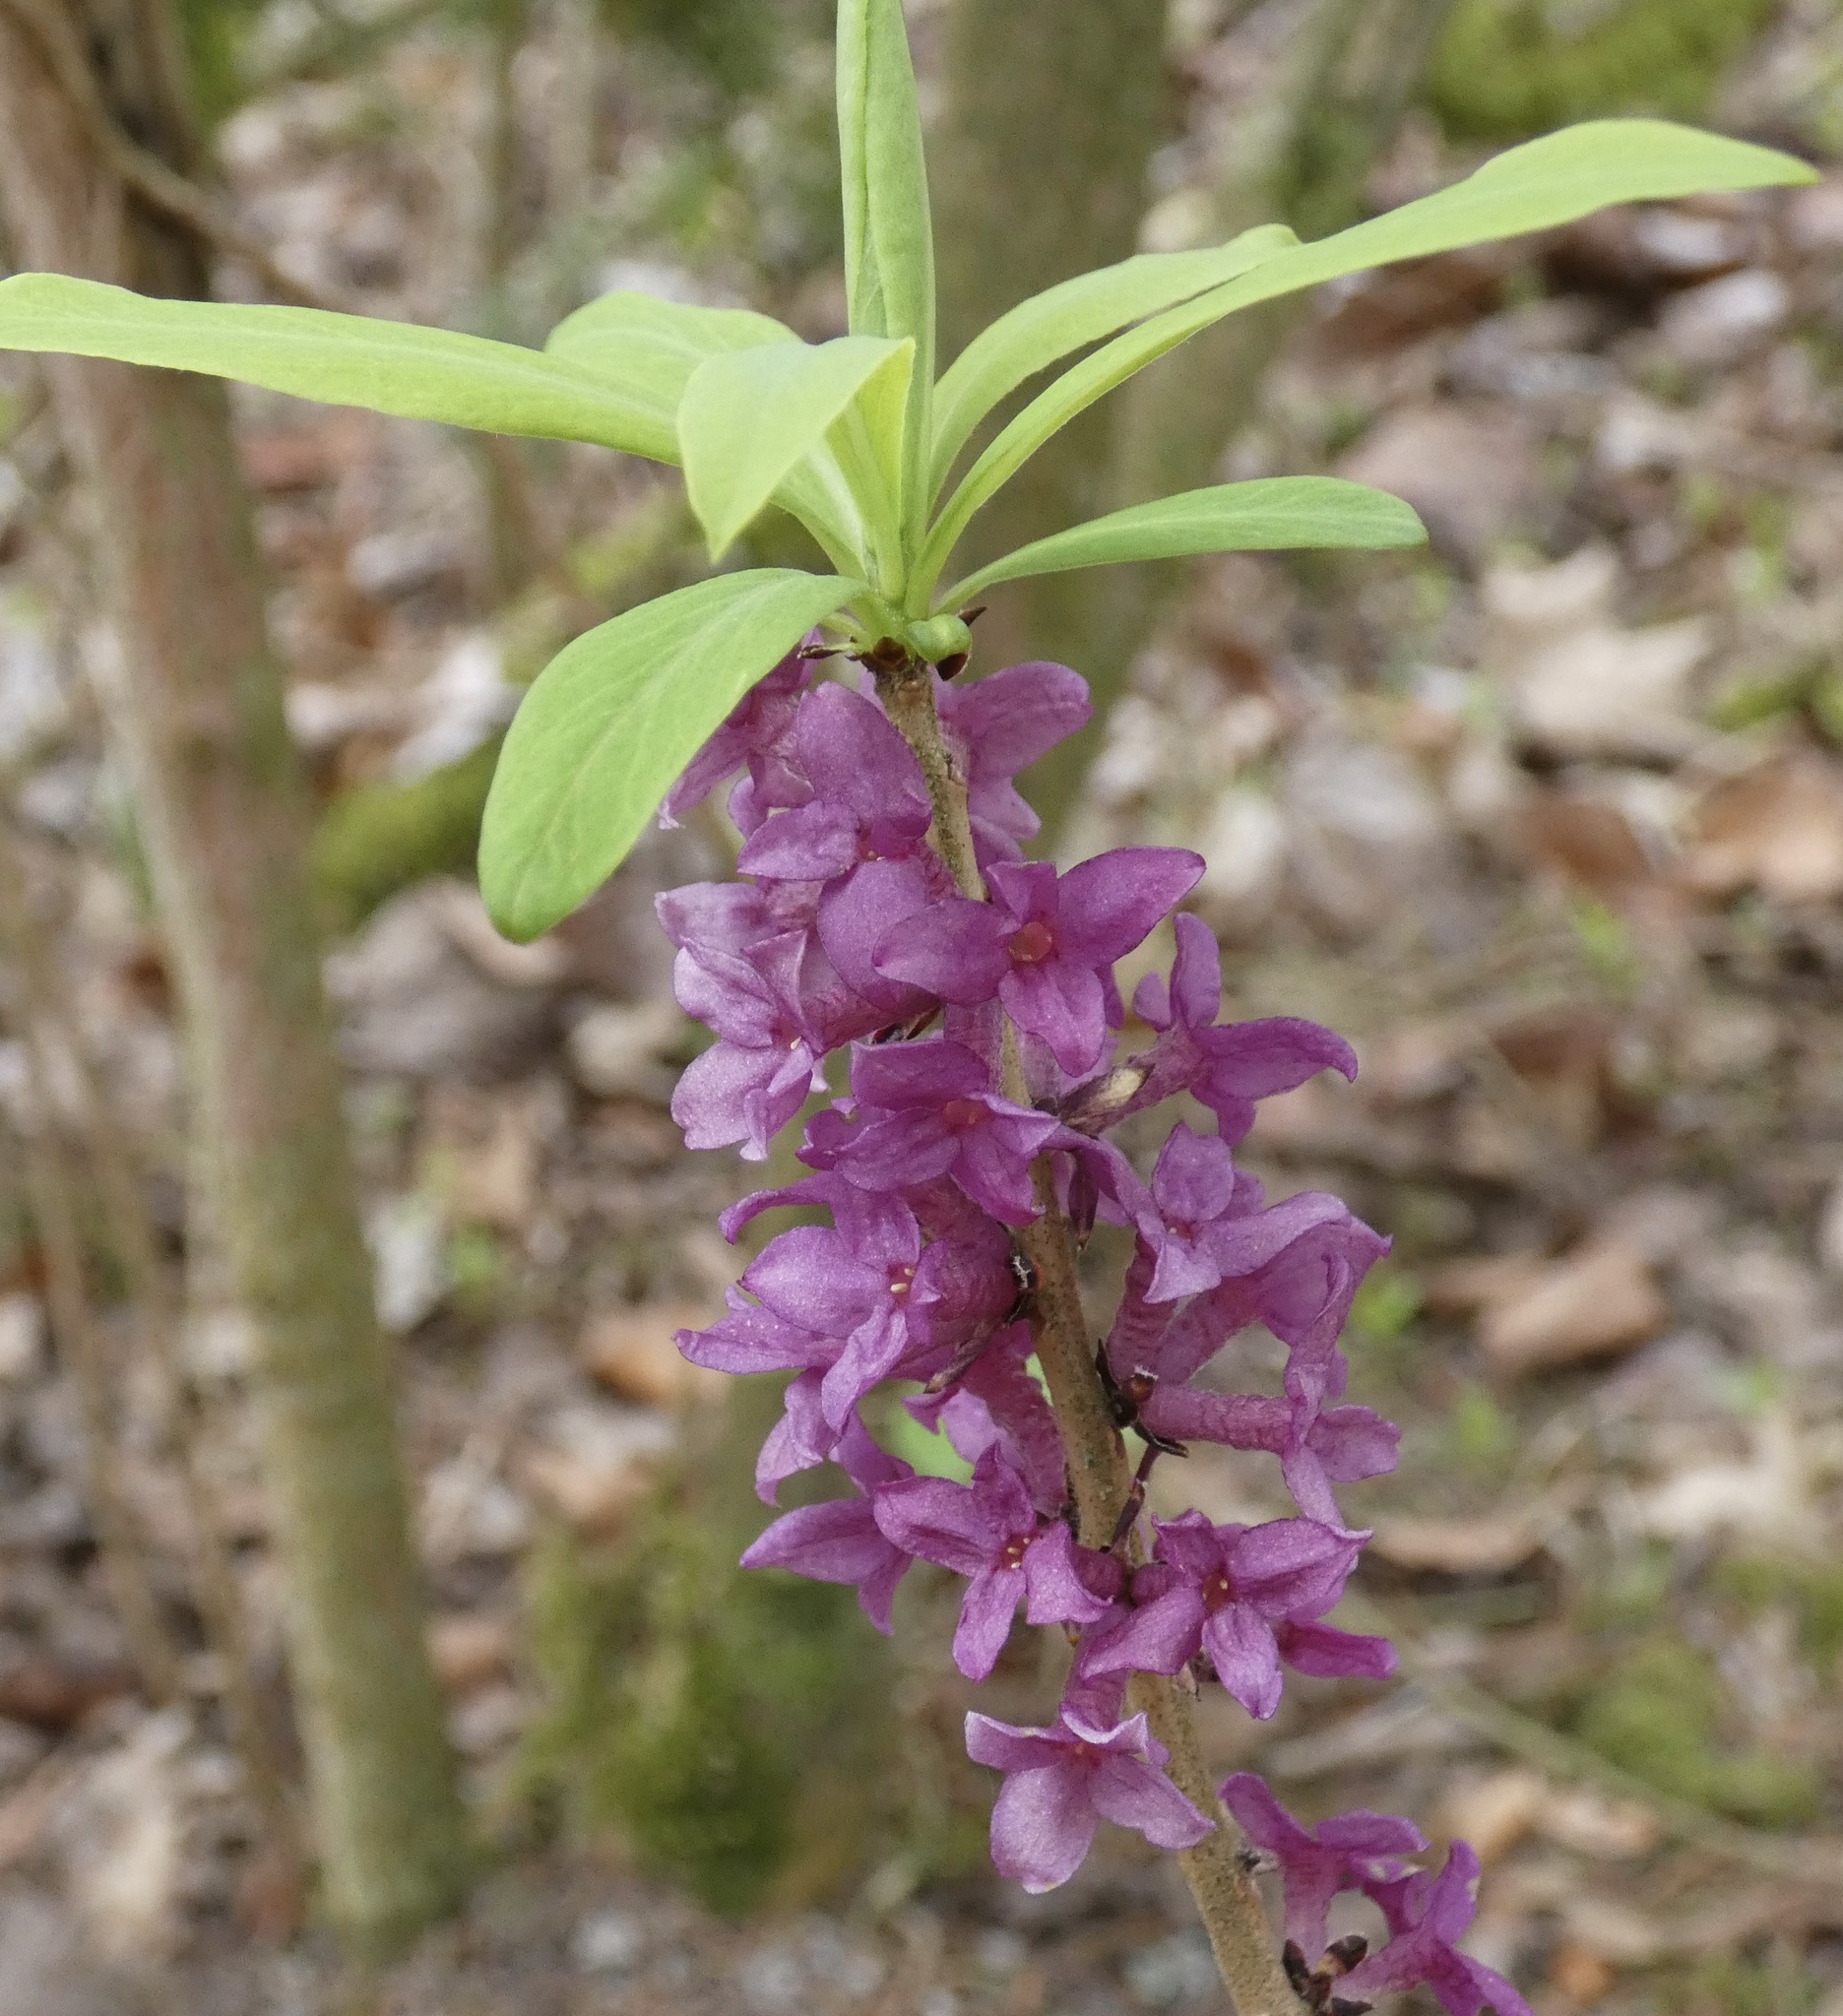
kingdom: Plantae
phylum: Tracheophyta
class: Magnoliopsida
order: Malvales
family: Thymelaeaceae
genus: Daphne
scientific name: Daphne mezereum
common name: Mezereon
